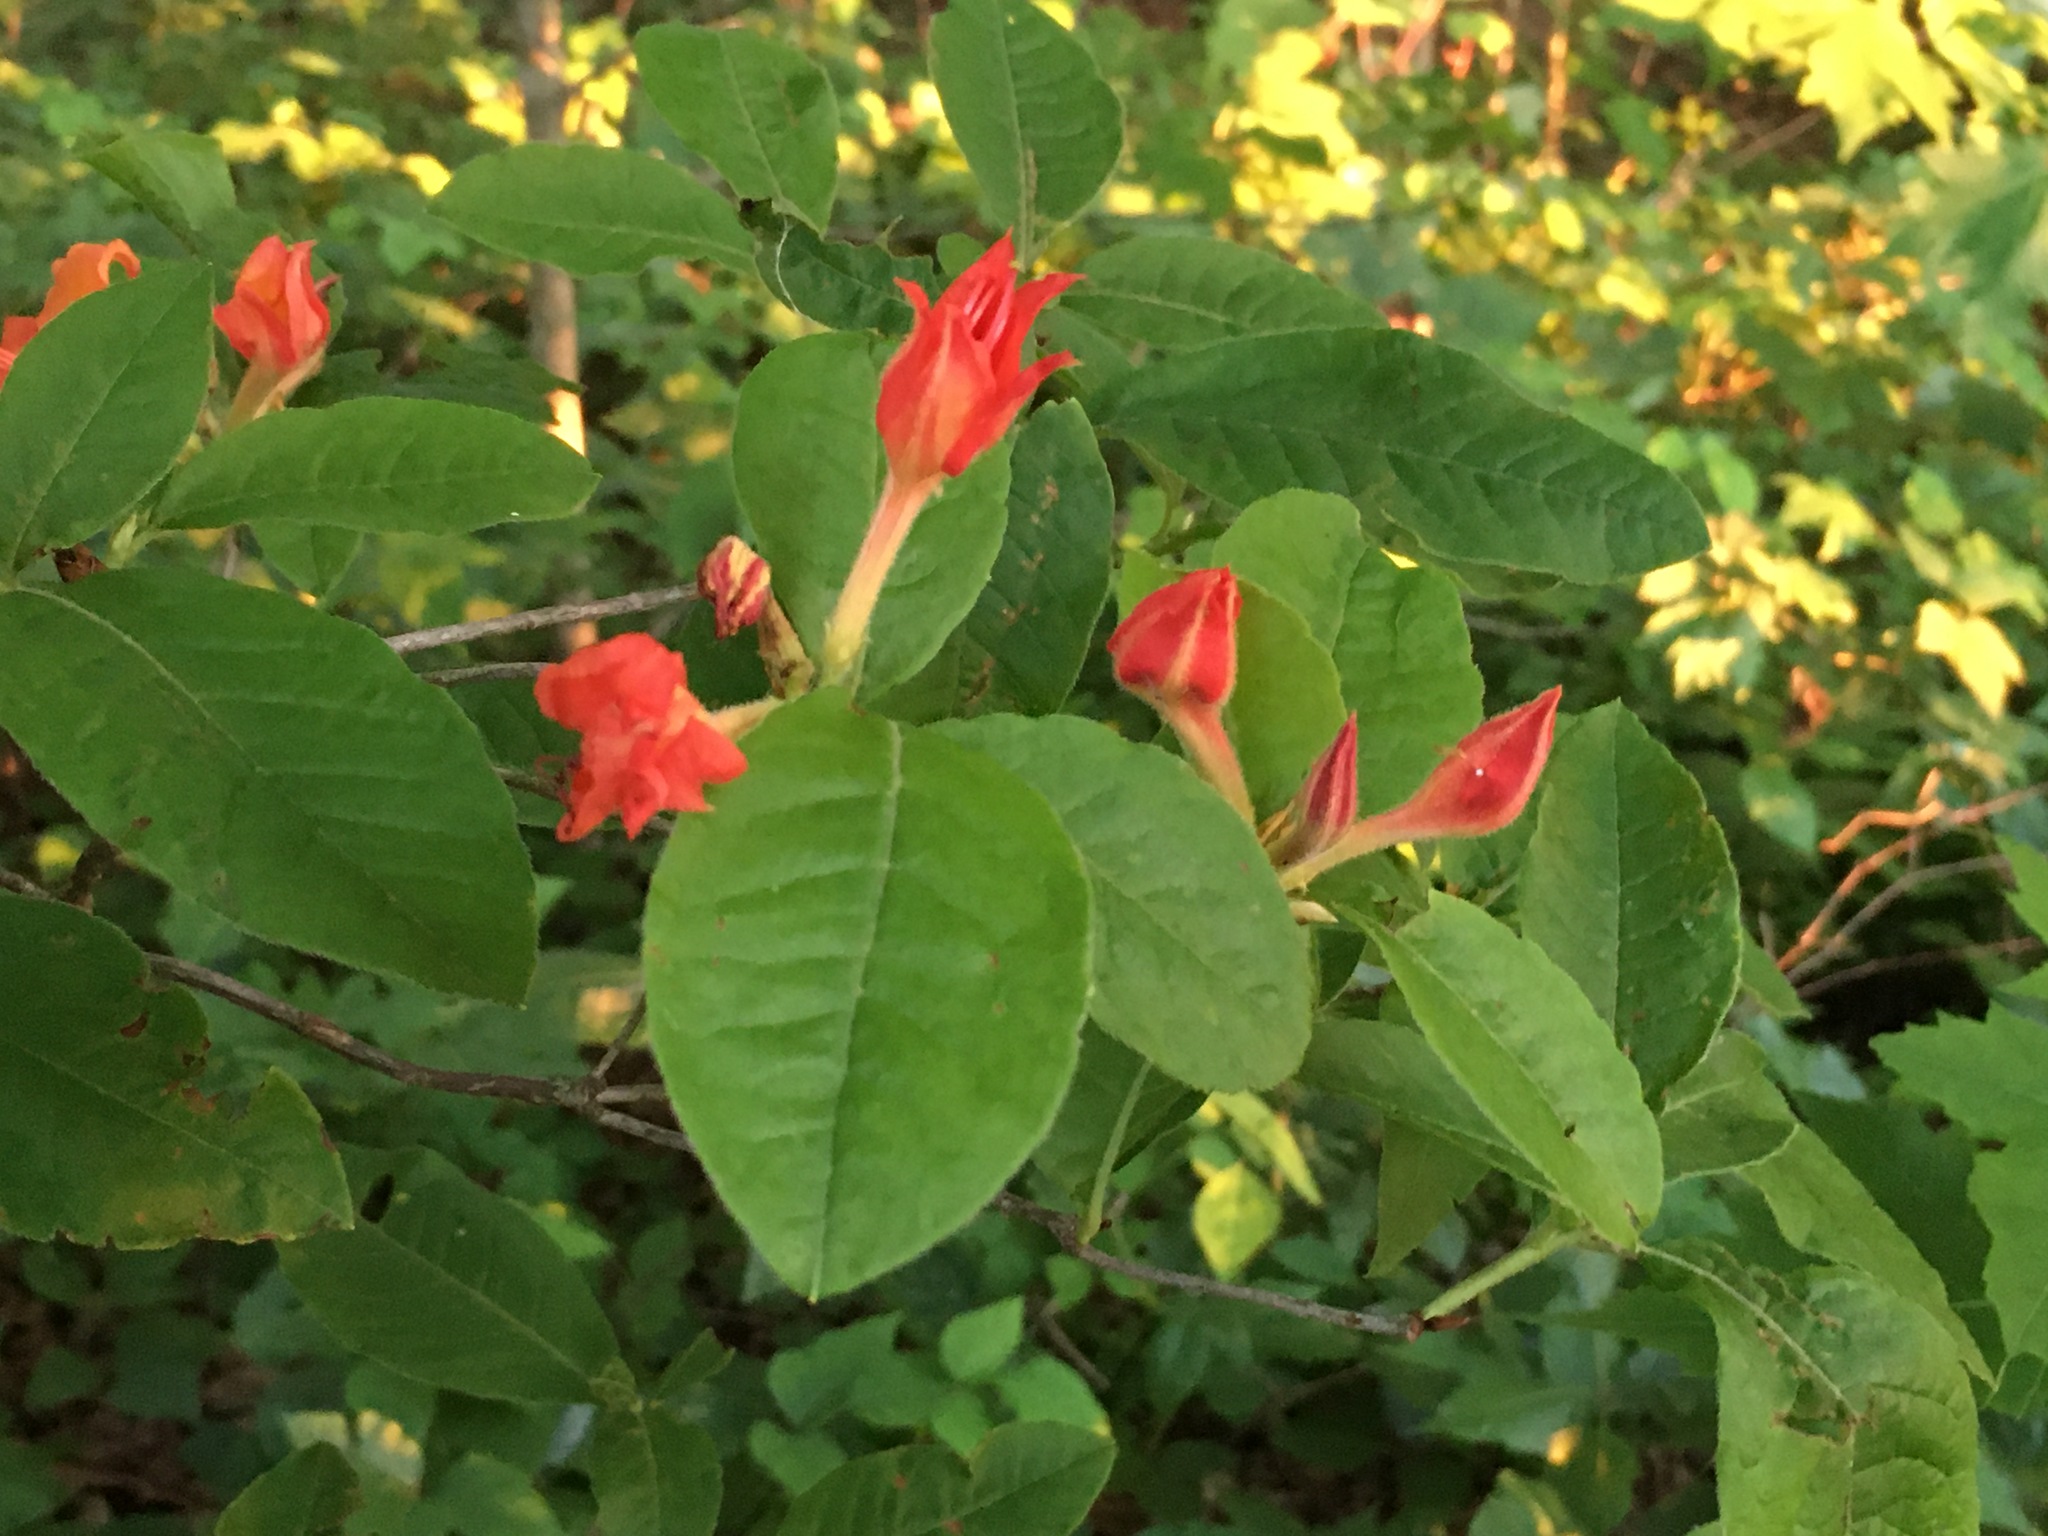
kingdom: Plantae
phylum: Tracheophyta
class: Magnoliopsida
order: Ericales
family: Ericaceae
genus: Rhododendron
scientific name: Rhododendron cumberlandense
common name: Diploid flame azalea
